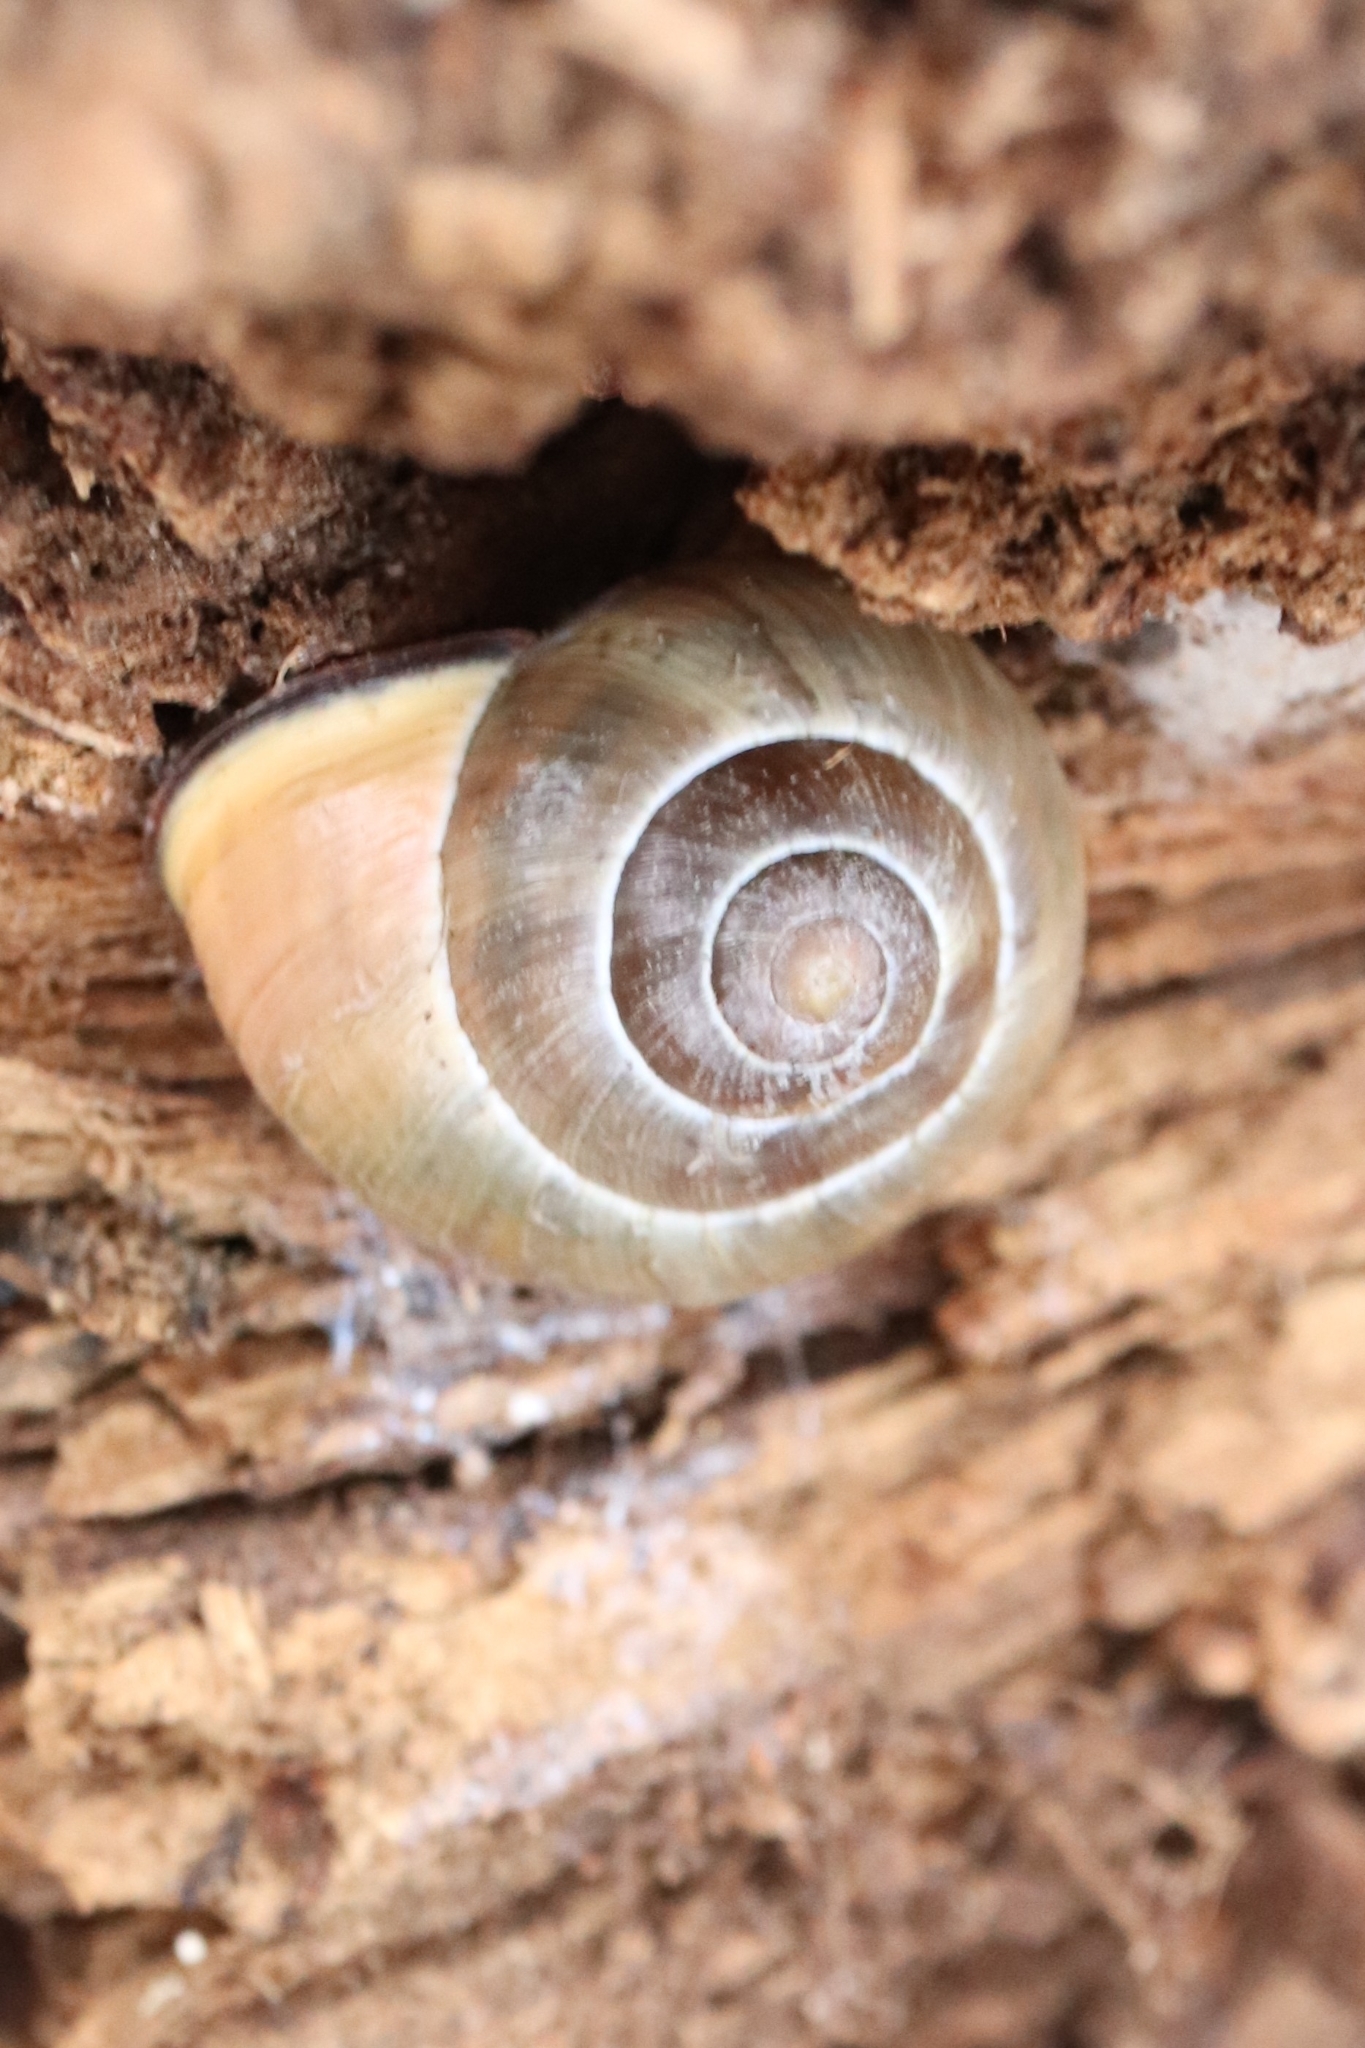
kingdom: Animalia
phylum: Mollusca
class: Gastropoda
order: Stylommatophora
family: Helicidae
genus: Cepaea
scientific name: Cepaea nemoralis
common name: Grovesnail
